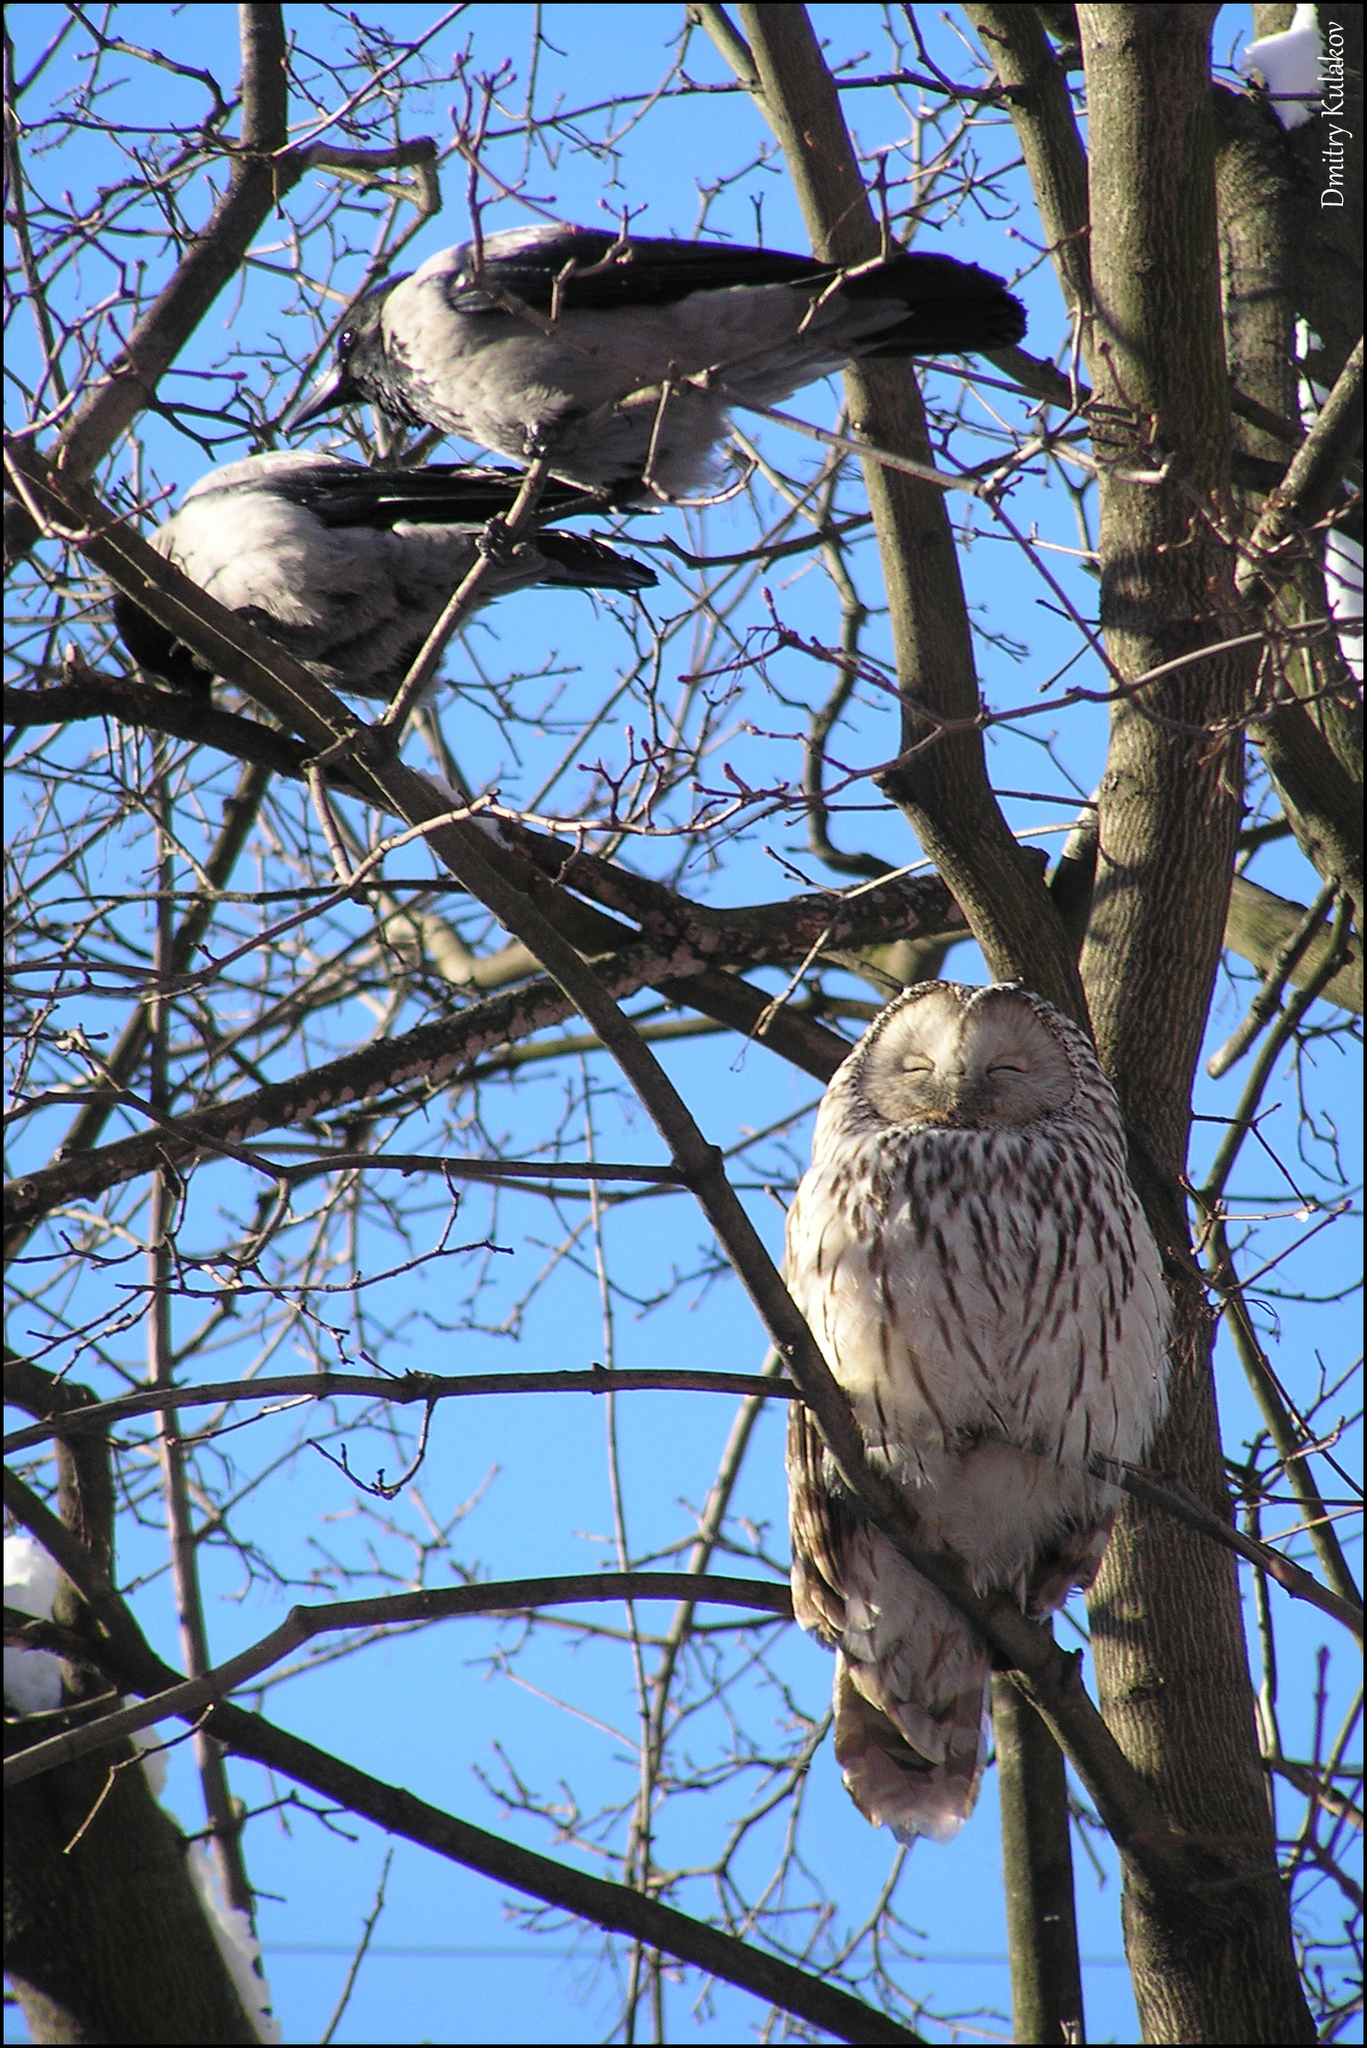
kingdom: Animalia
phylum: Chordata
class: Aves
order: Strigiformes
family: Strigidae
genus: Strix
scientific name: Strix uralensis
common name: Ural owl
